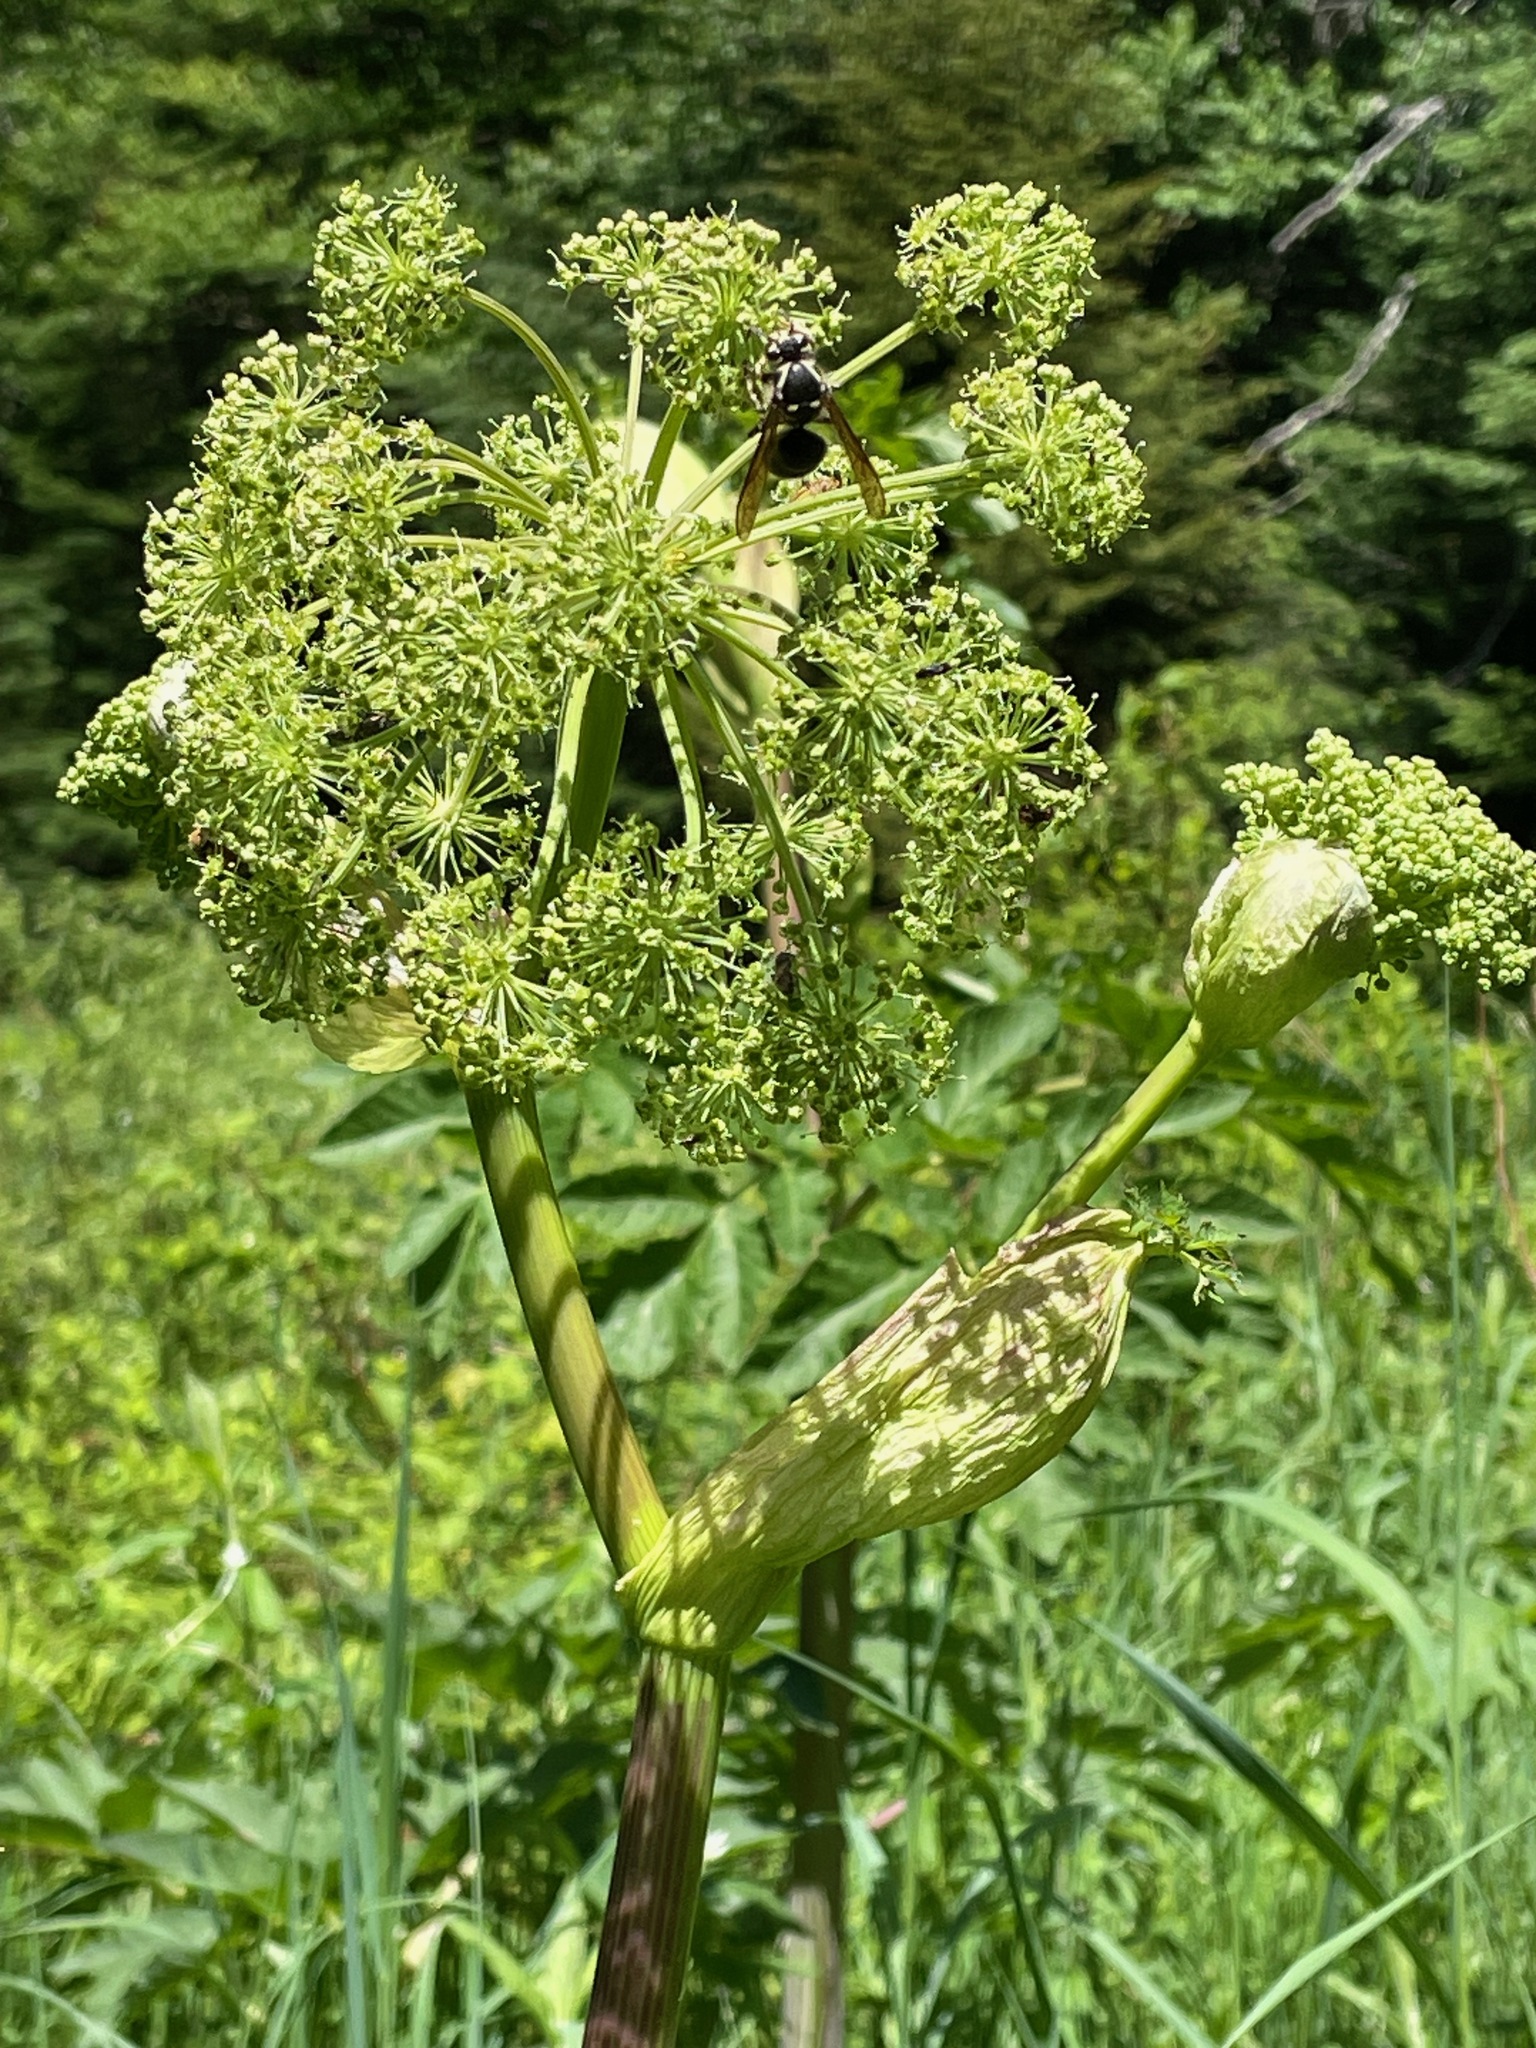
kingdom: Plantae
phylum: Tracheophyta
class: Magnoliopsida
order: Apiales
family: Apiaceae
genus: Angelica
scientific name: Angelica atropurpurea
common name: Great angelica
